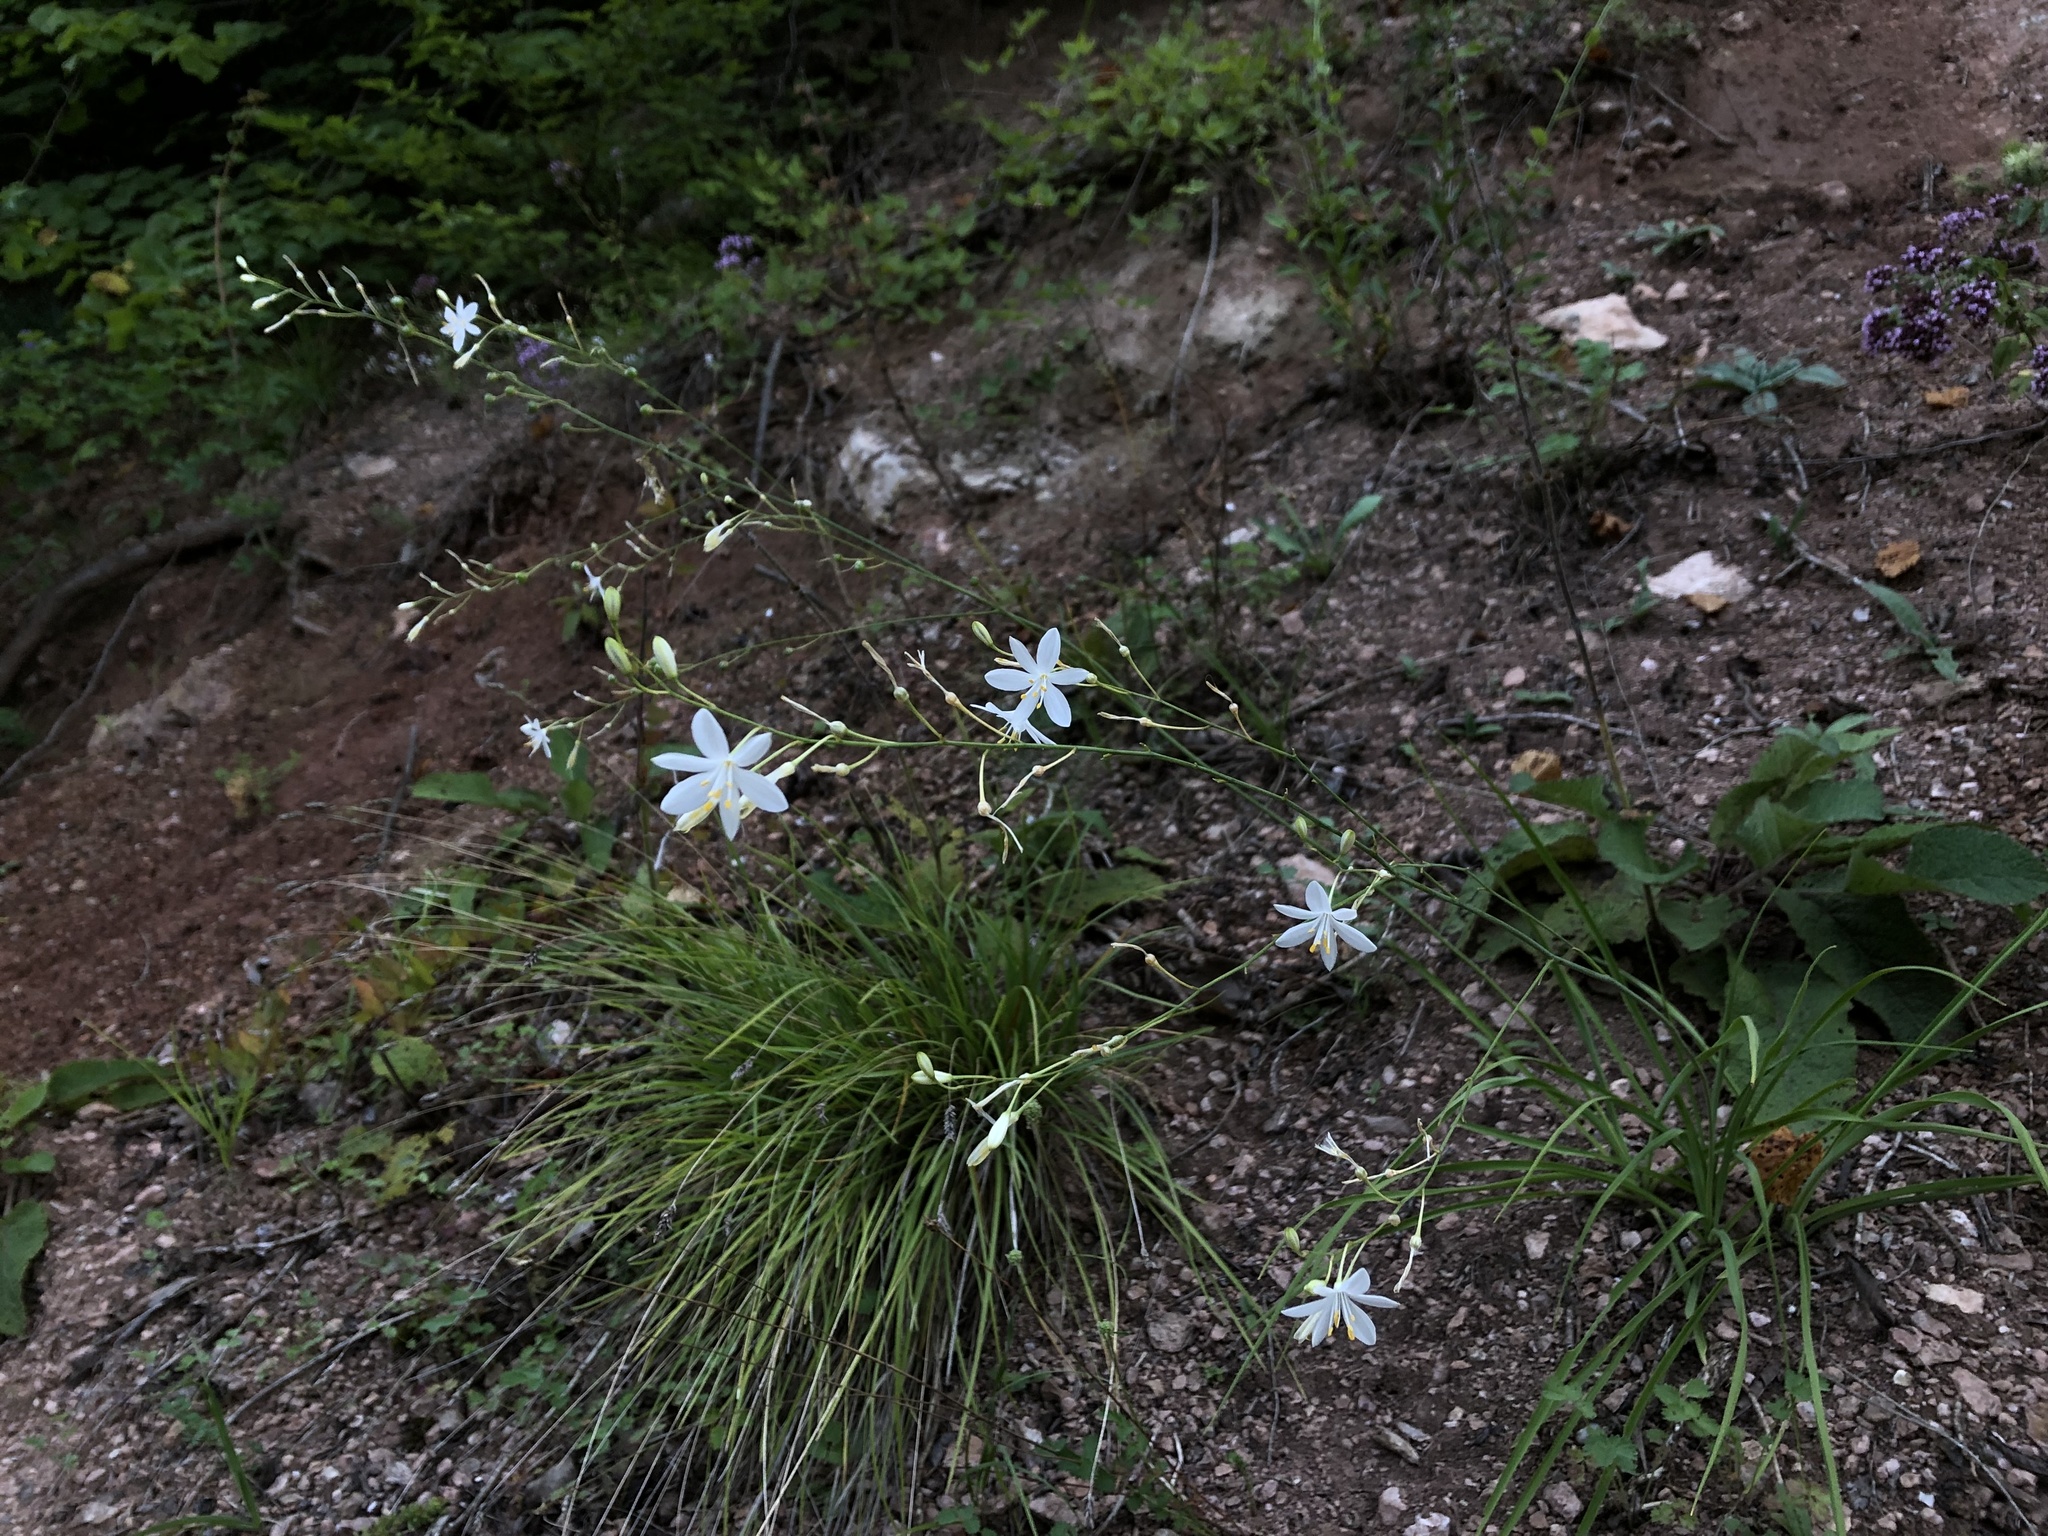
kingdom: Plantae
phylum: Tracheophyta
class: Liliopsida
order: Asparagales
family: Asparagaceae
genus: Anthericum
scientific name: Anthericum ramosum
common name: Branched st. bernard's-lily
